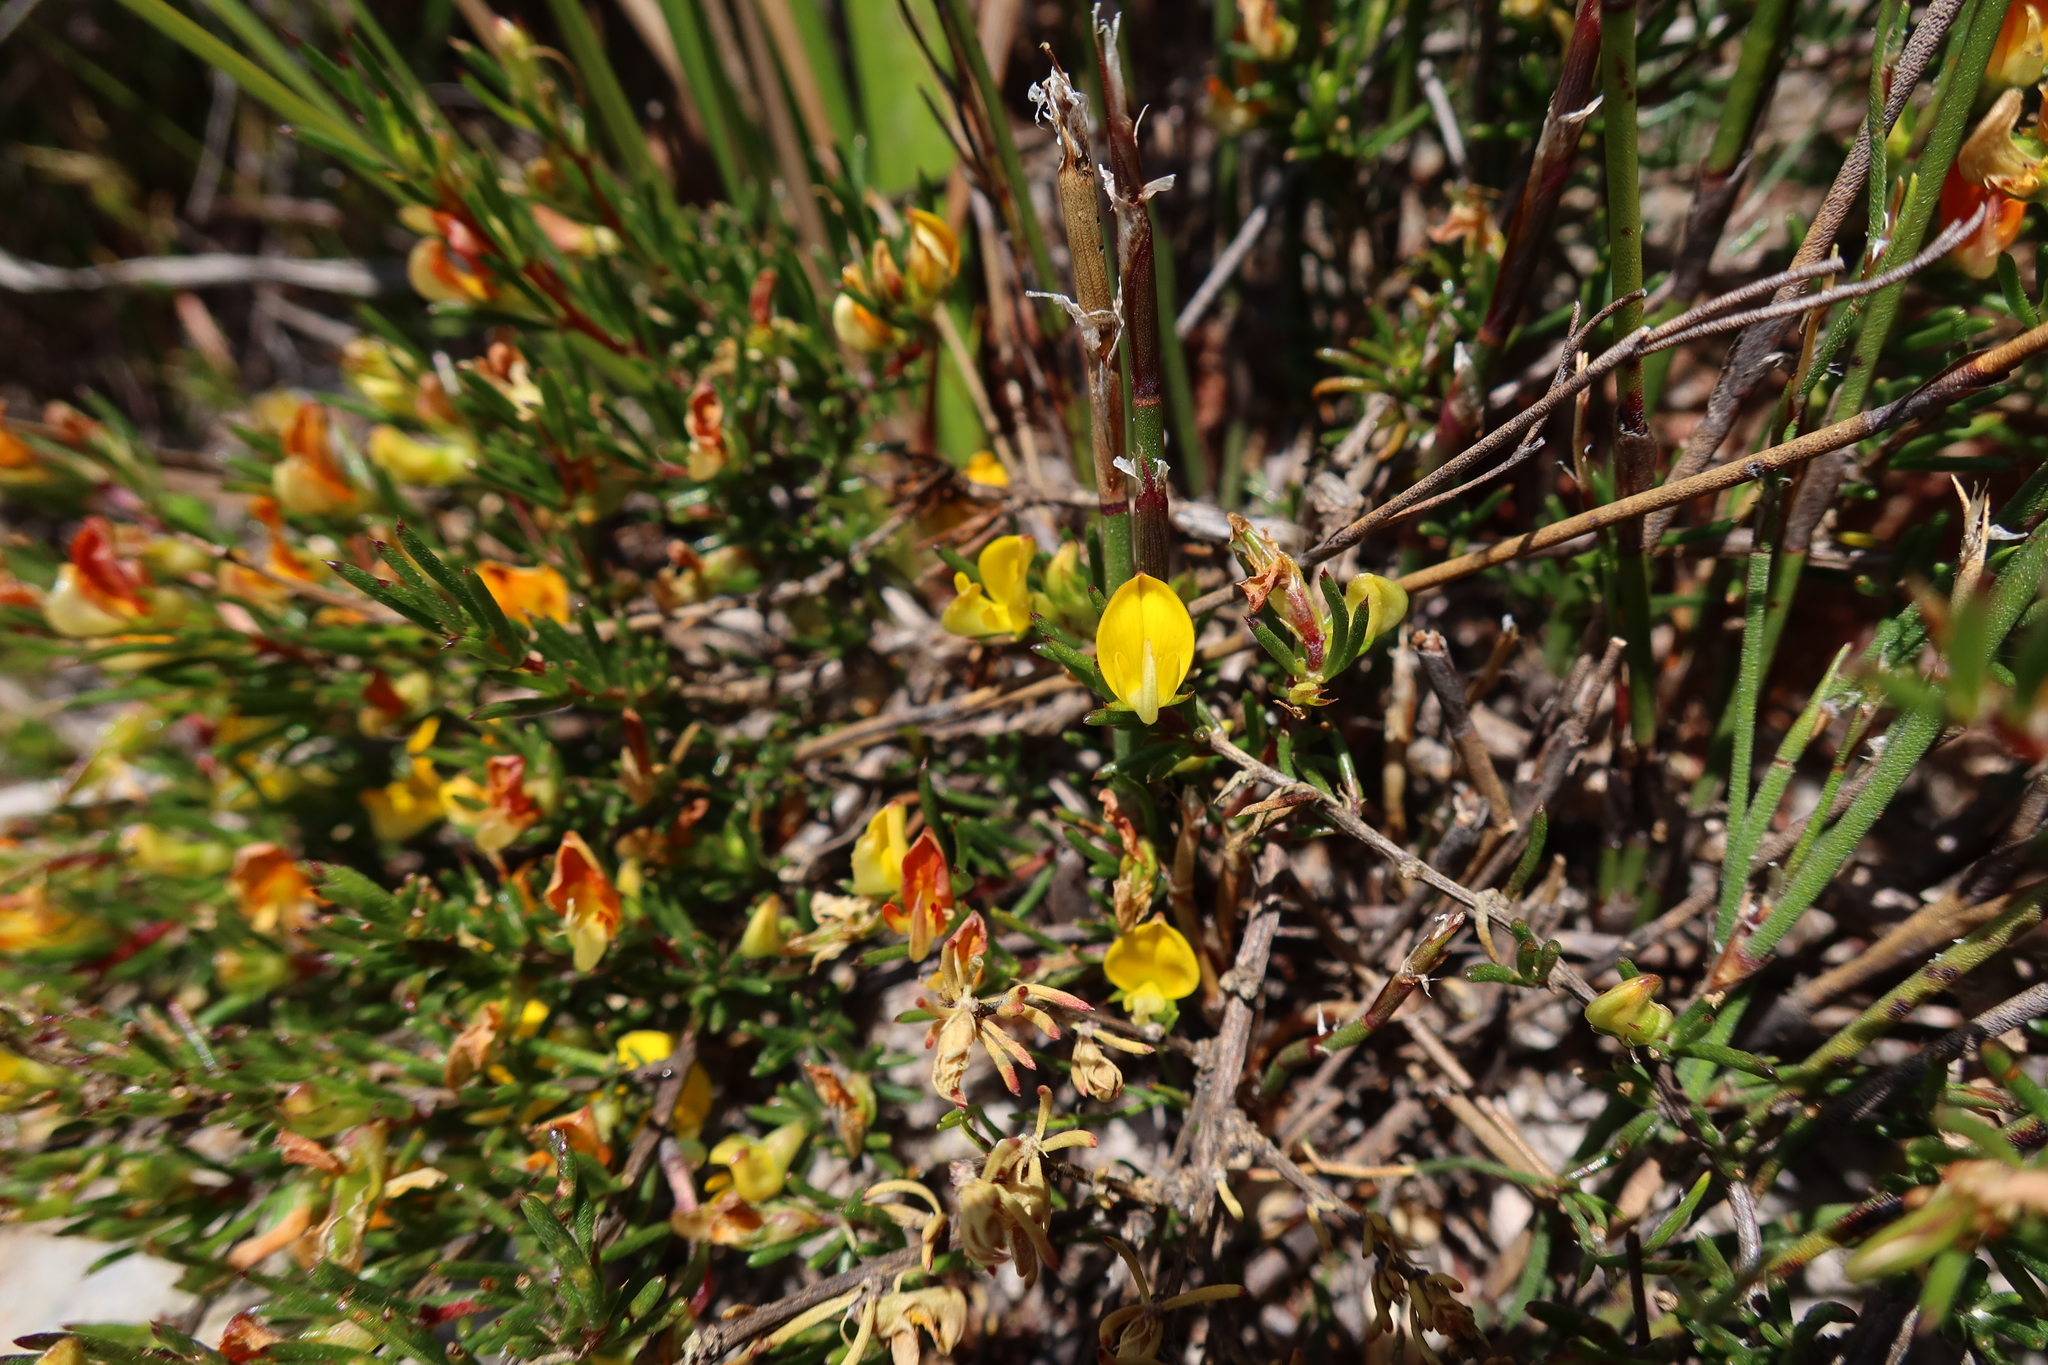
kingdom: Plantae
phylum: Tracheophyta
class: Magnoliopsida
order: Fabales
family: Fabaceae
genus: Aspalathus
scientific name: Aspalathus abietina
